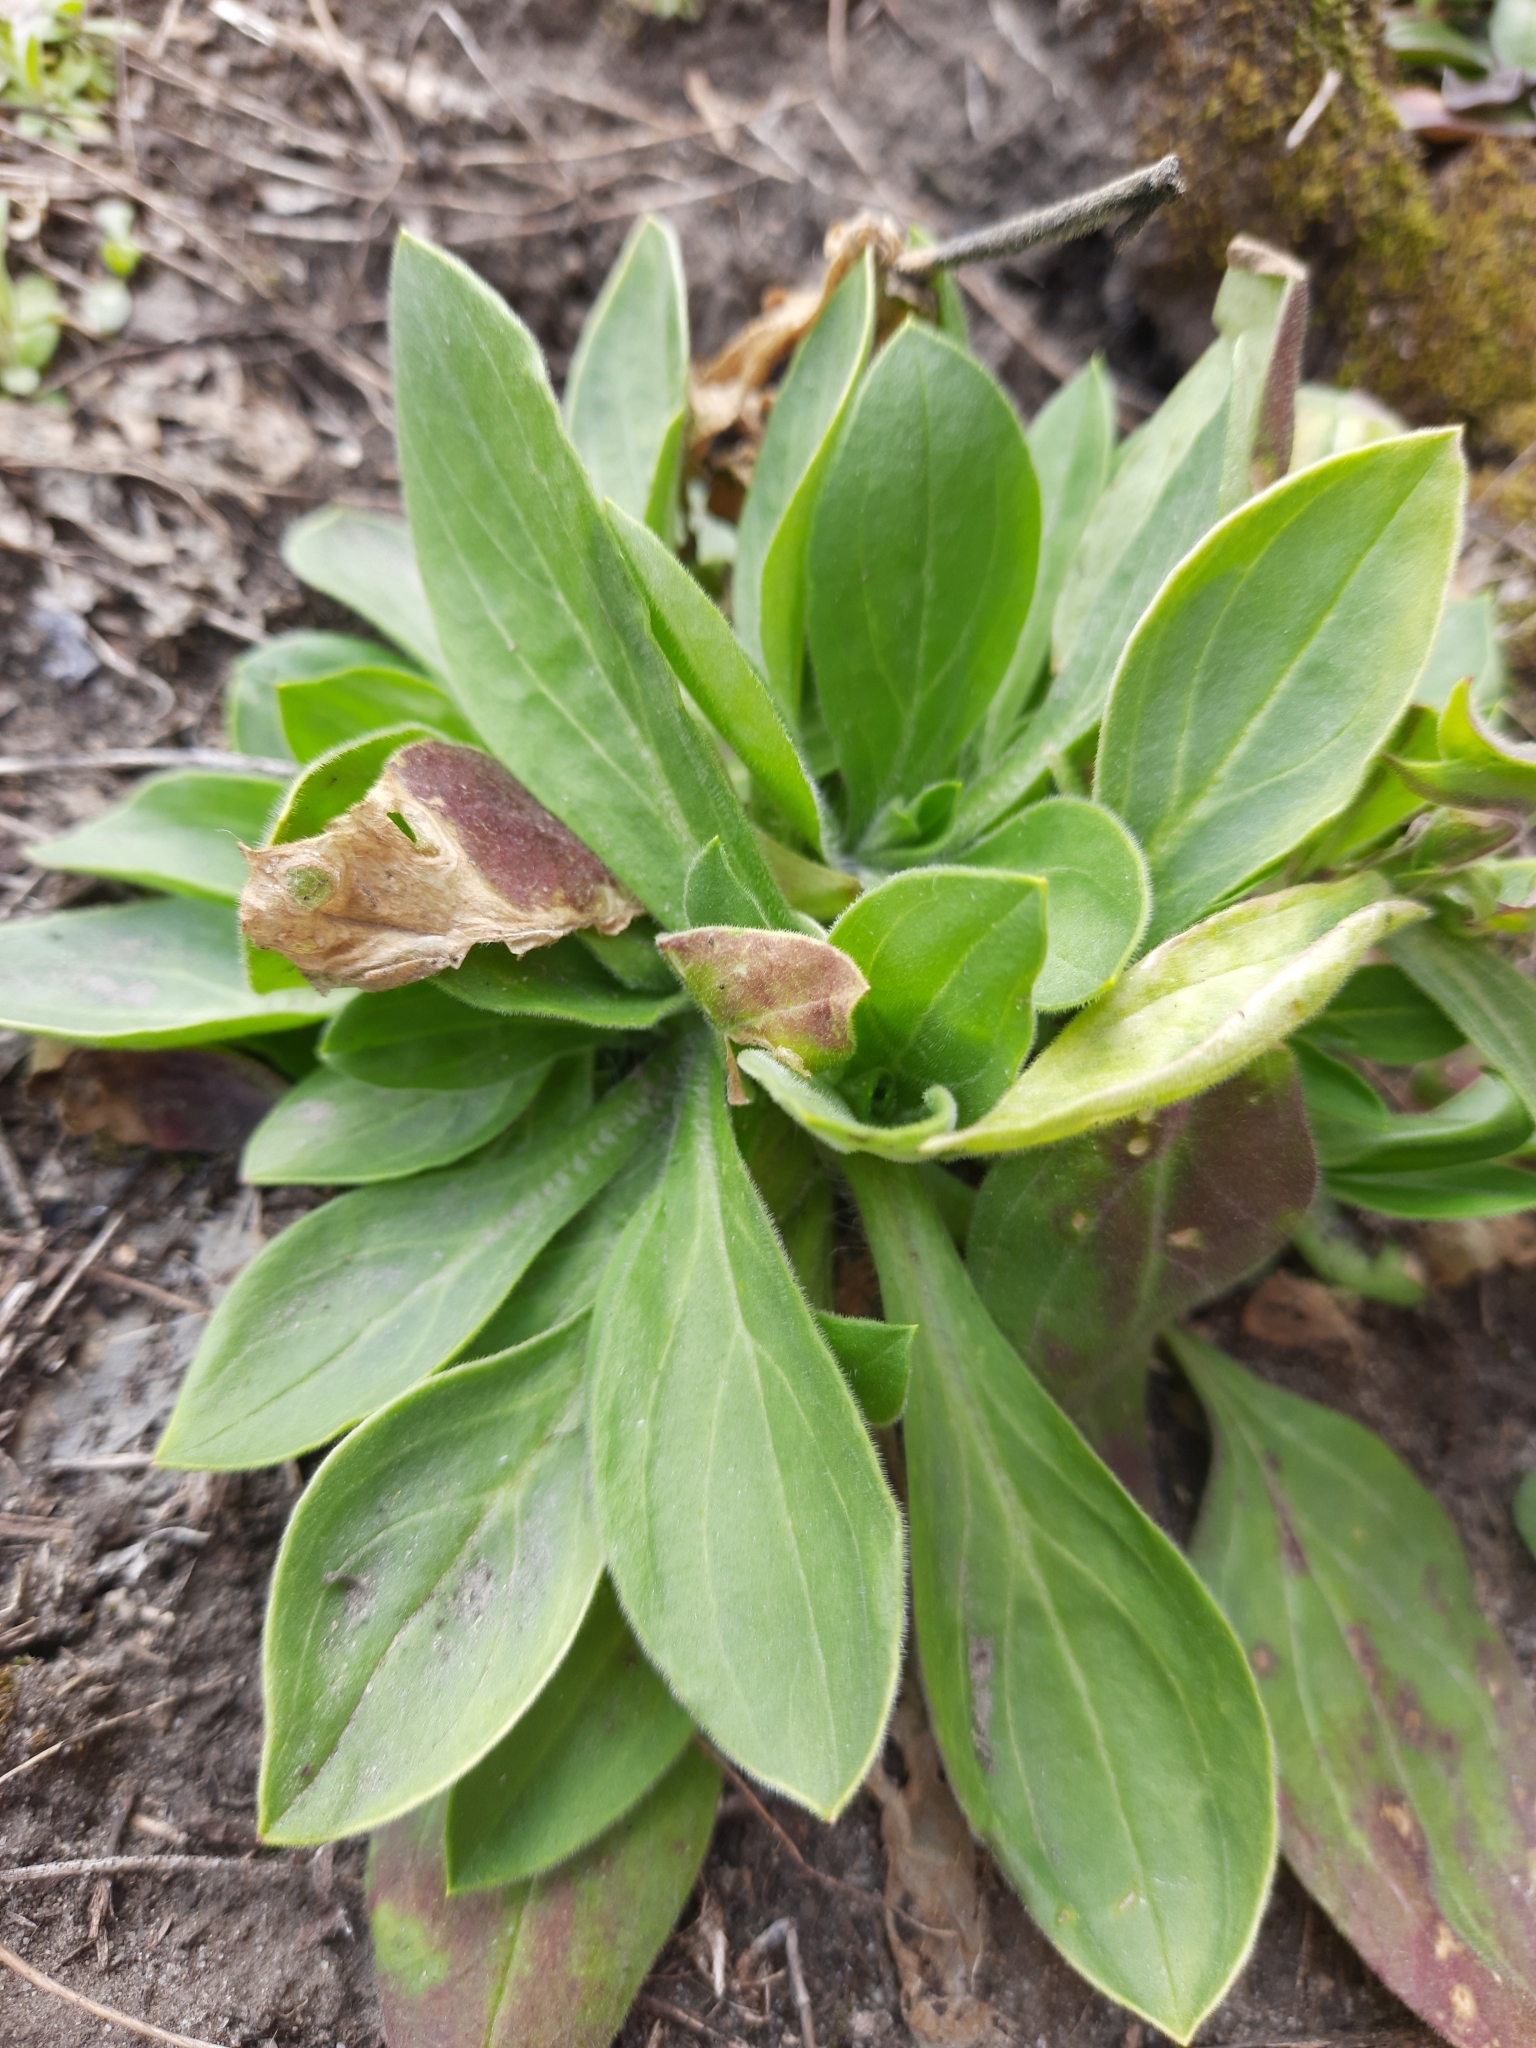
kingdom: Plantae
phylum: Tracheophyta
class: Magnoliopsida
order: Caryophyllales
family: Caryophyllaceae
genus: Silene
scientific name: Silene latifolia
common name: White campion
